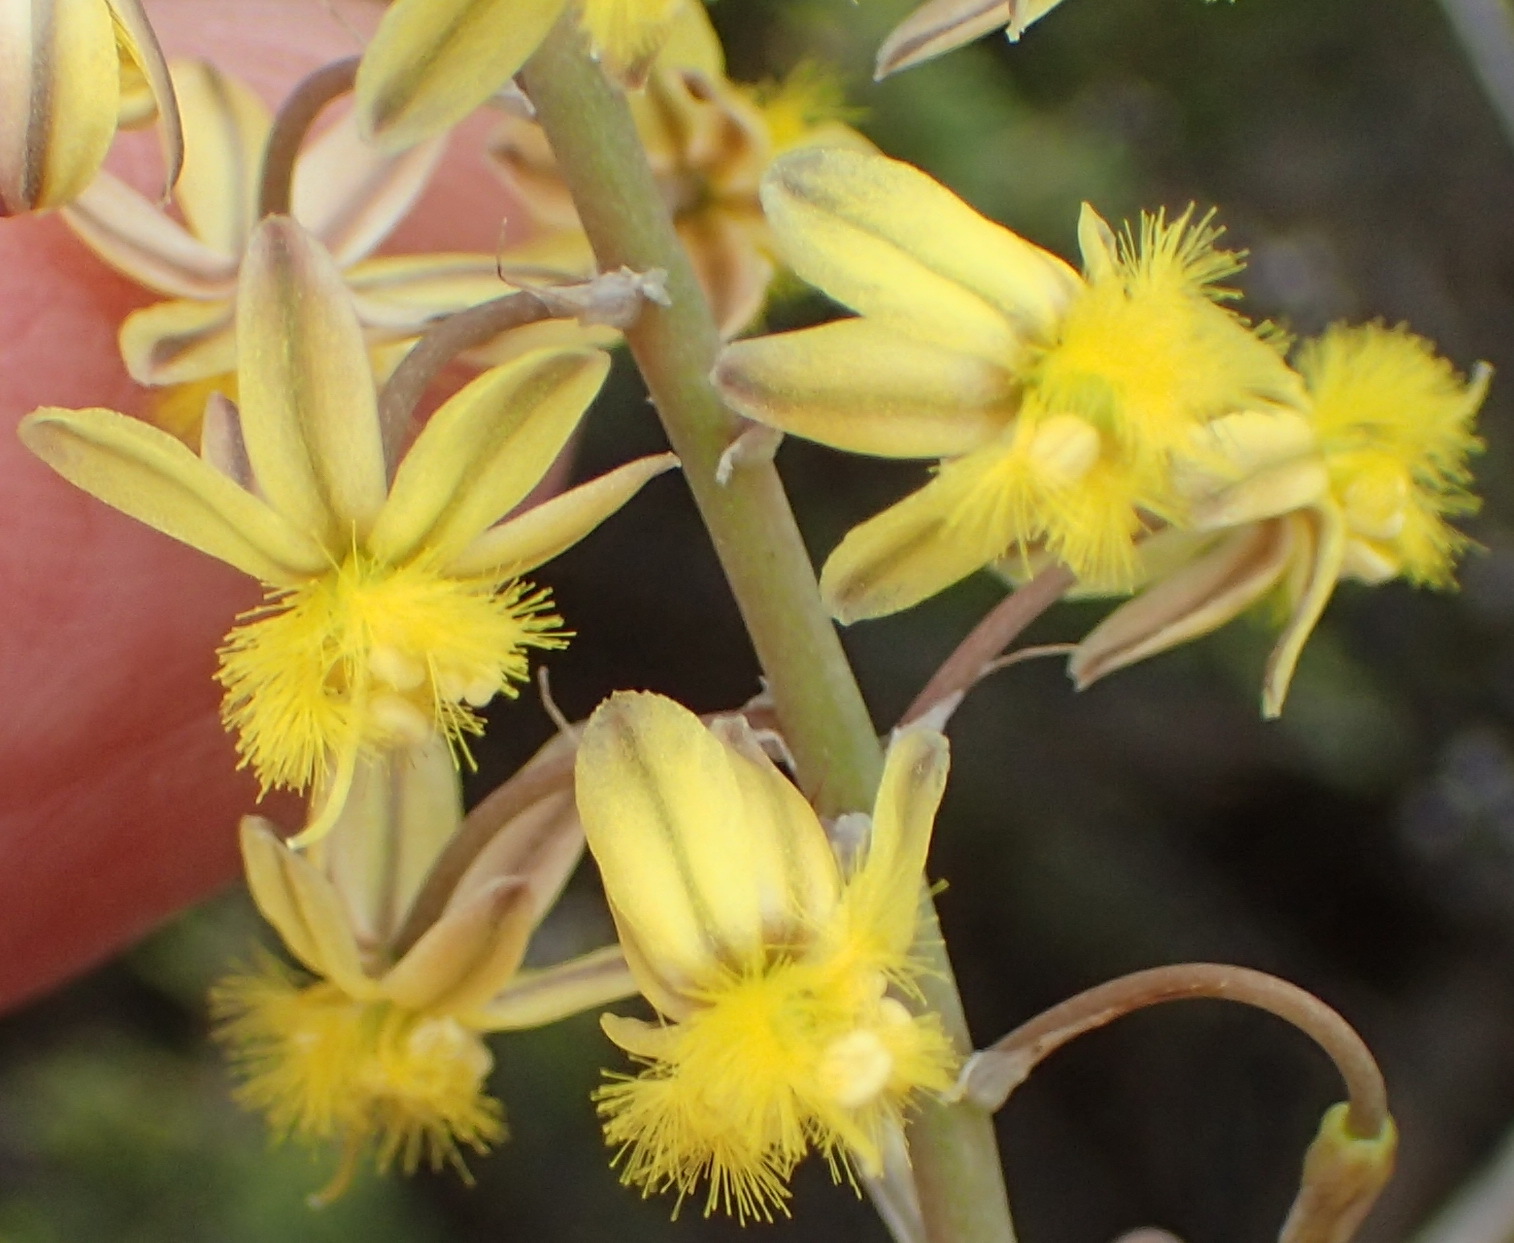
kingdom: Plantae
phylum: Tracheophyta
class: Liliopsida
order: Asparagales
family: Asphodelaceae
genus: Bulbine
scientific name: Bulbine frutescens
